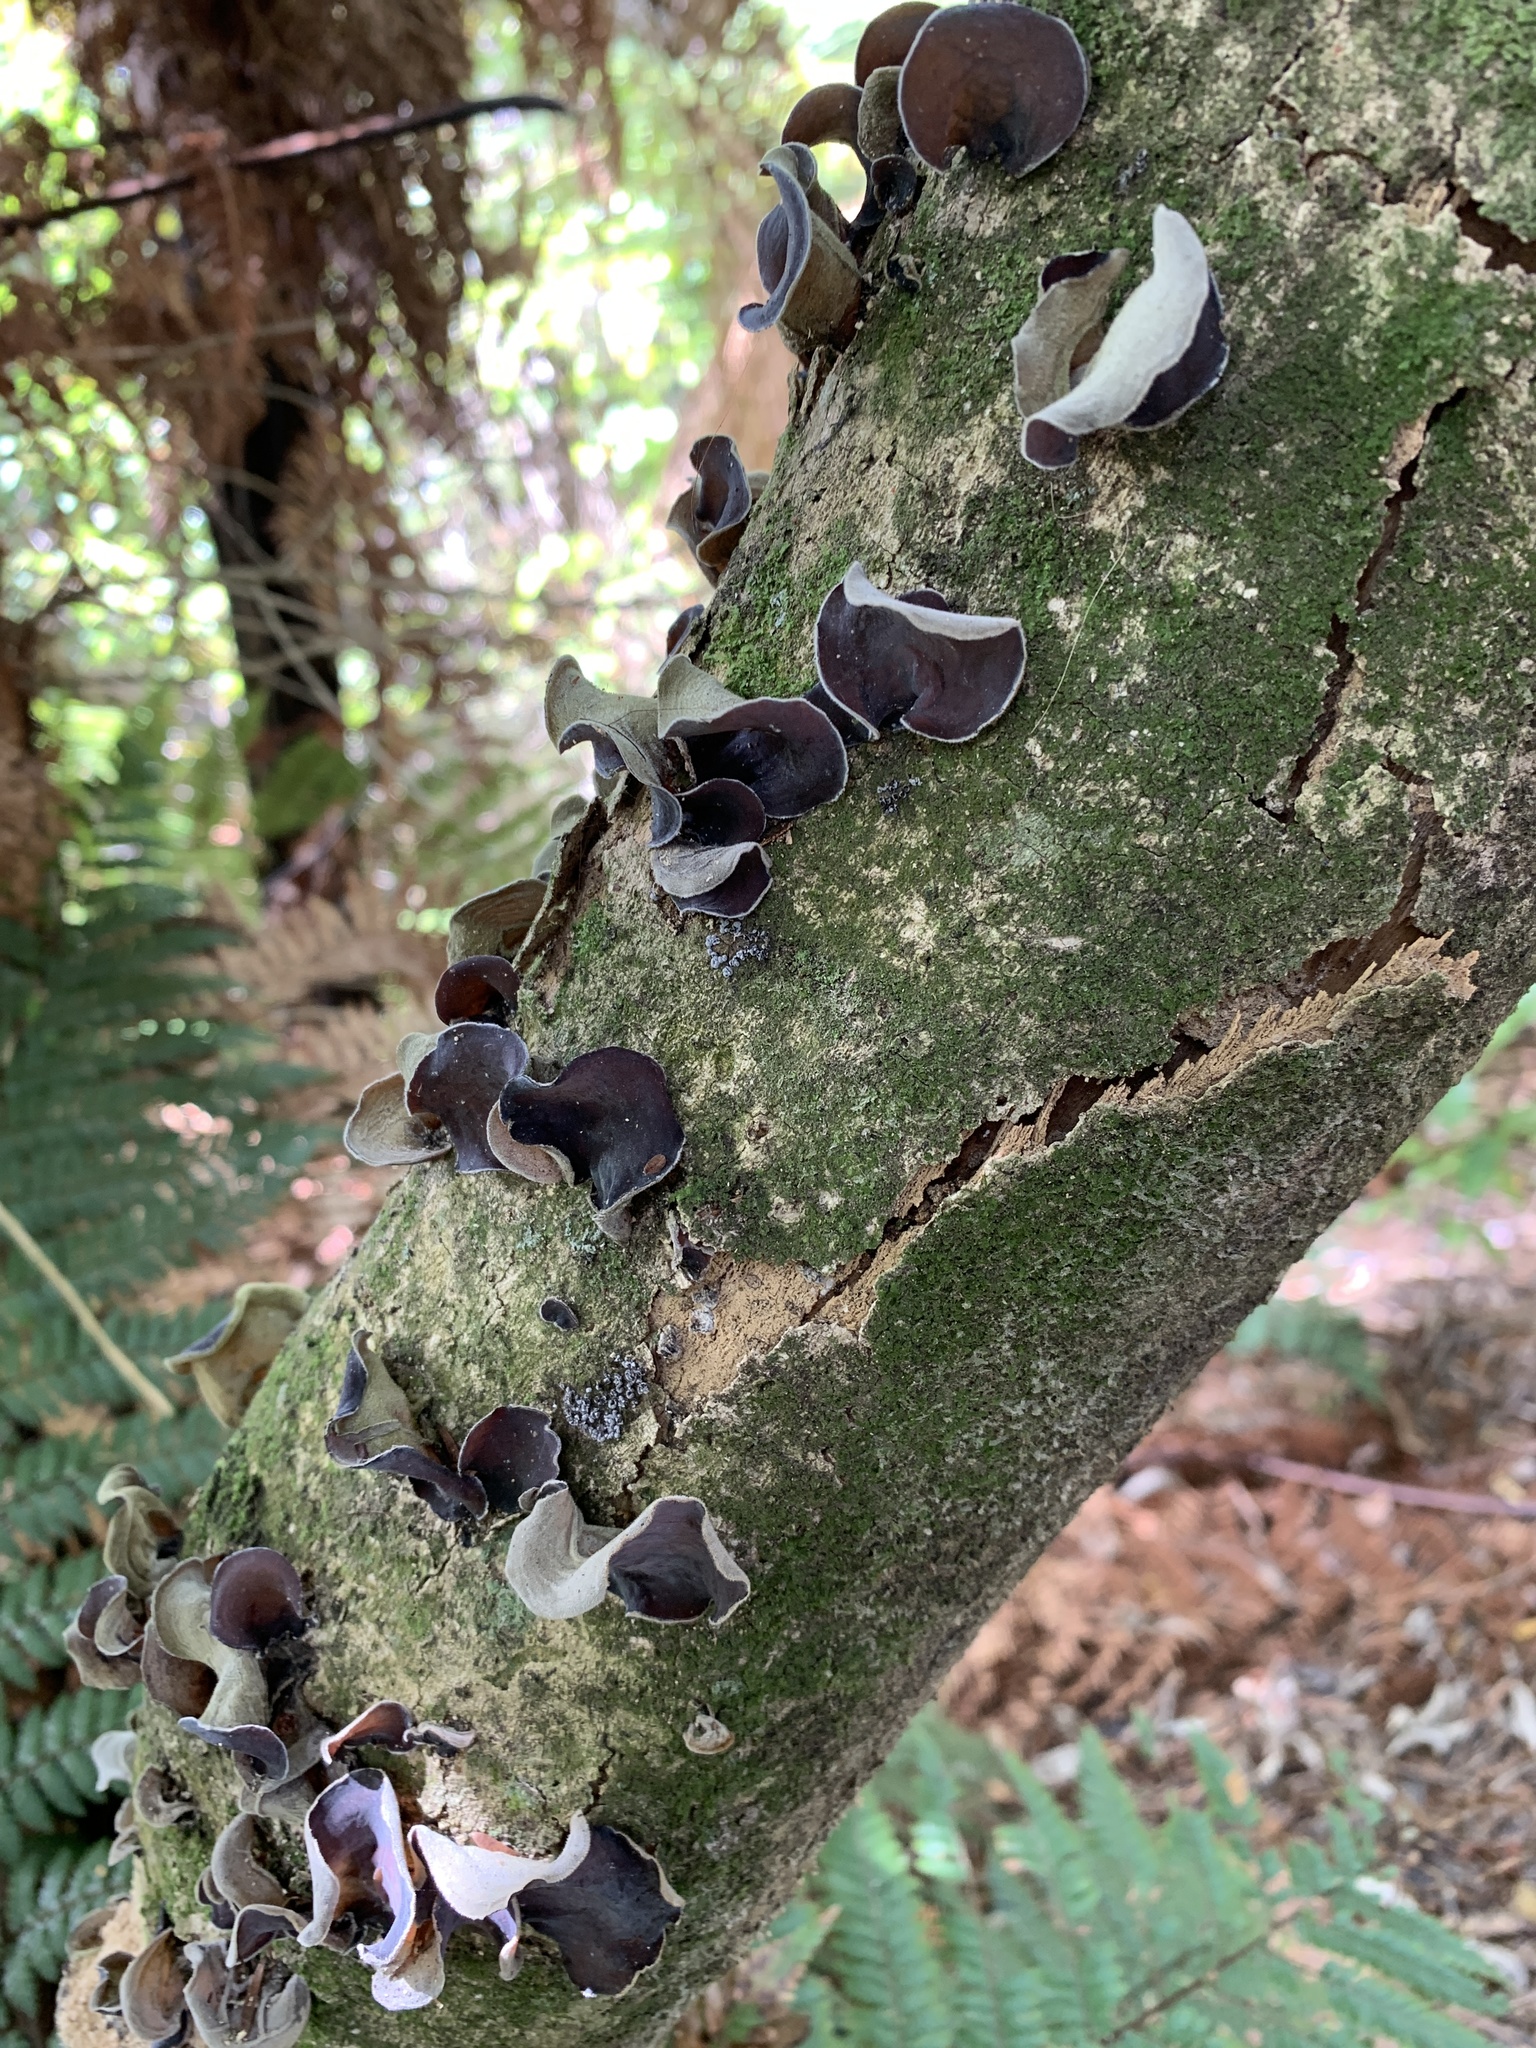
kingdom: Fungi
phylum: Basidiomycota
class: Agaricomycetes
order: Auriculariales
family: Auriculariaceae
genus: Auricularia
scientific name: Auricularia cornea
